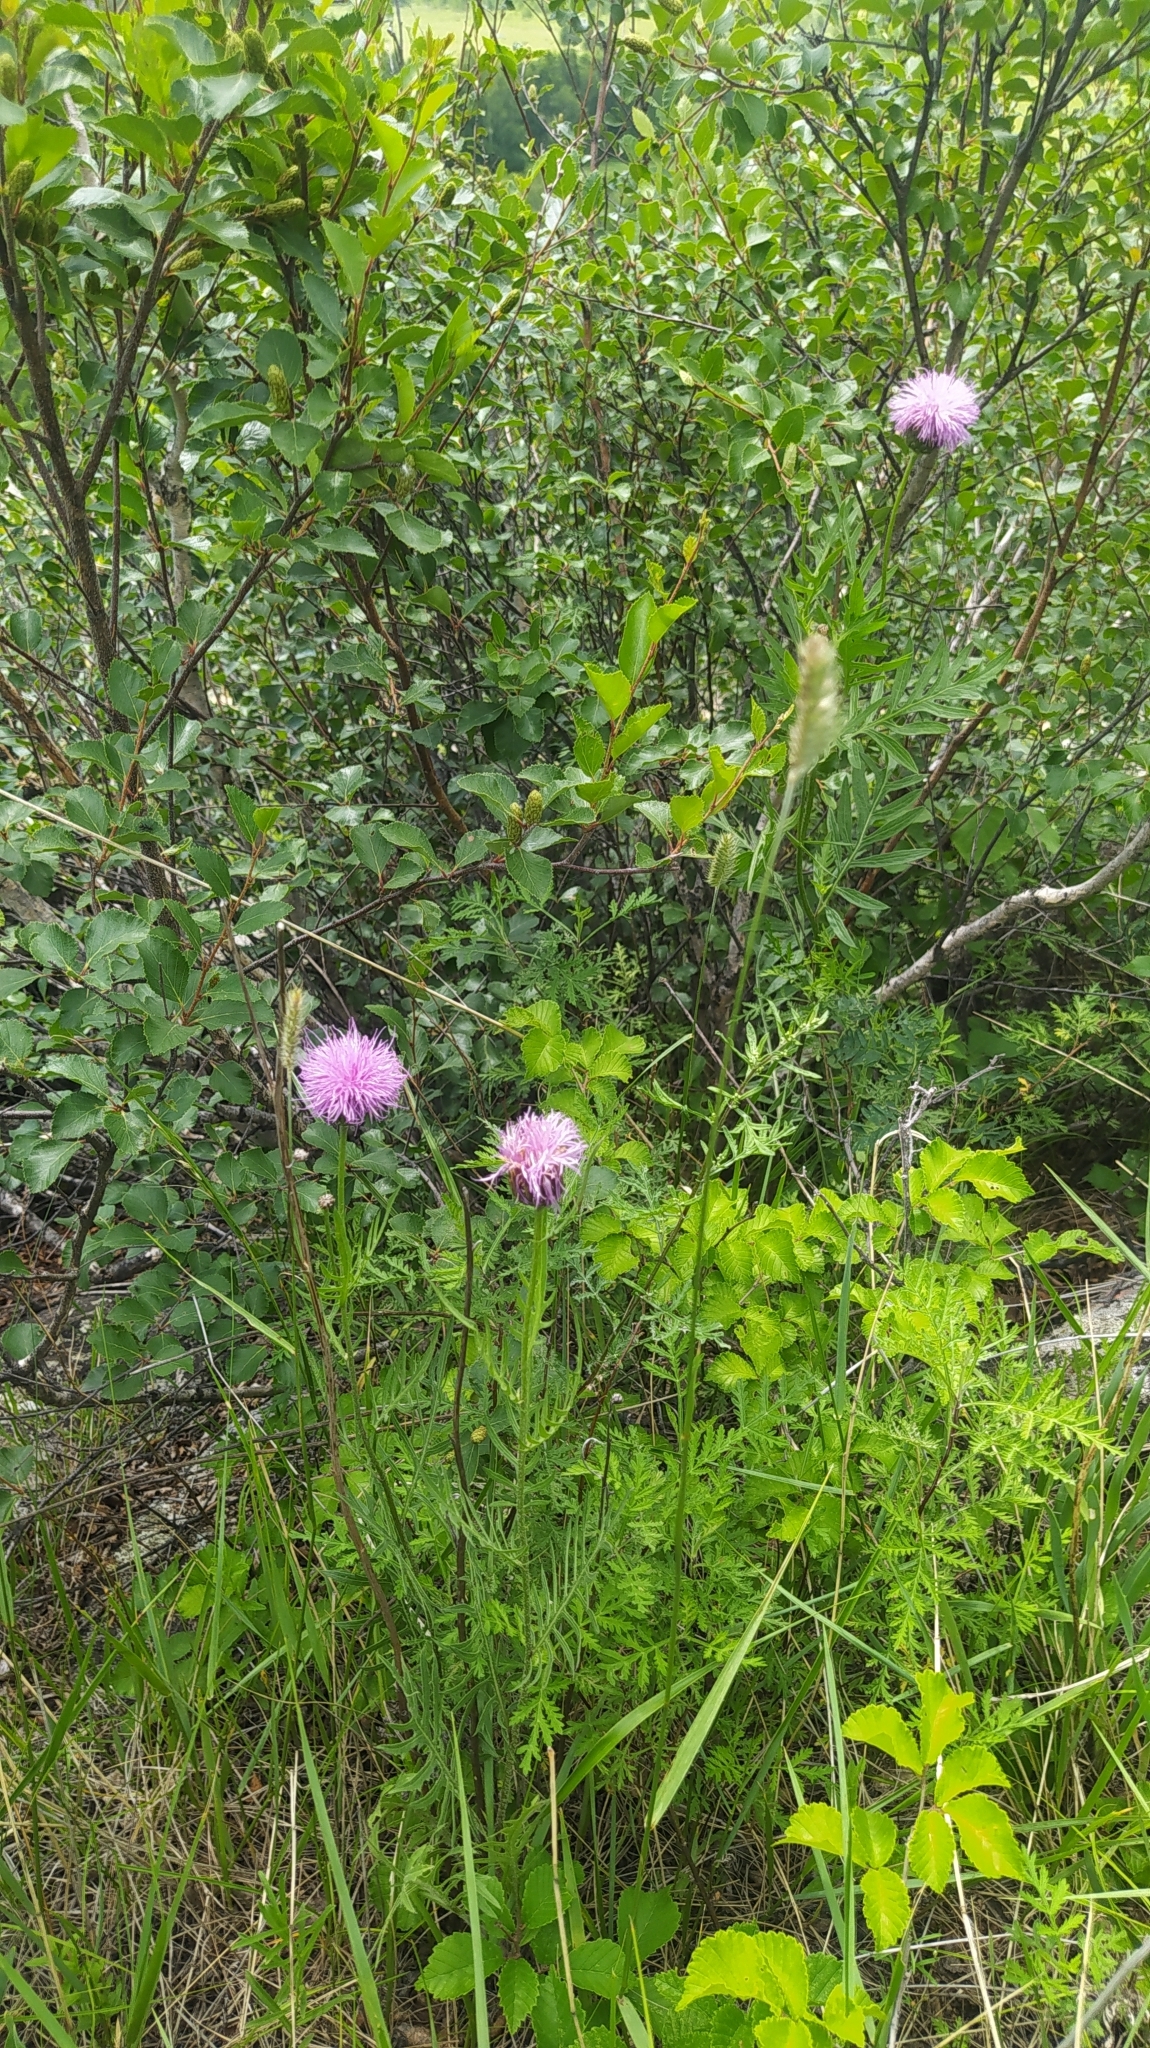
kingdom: Plantae
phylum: Tracheophyta
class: Magnoliopsida
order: Asterales
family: Asteraceae
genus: Klasea
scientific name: Klasea centauroides
